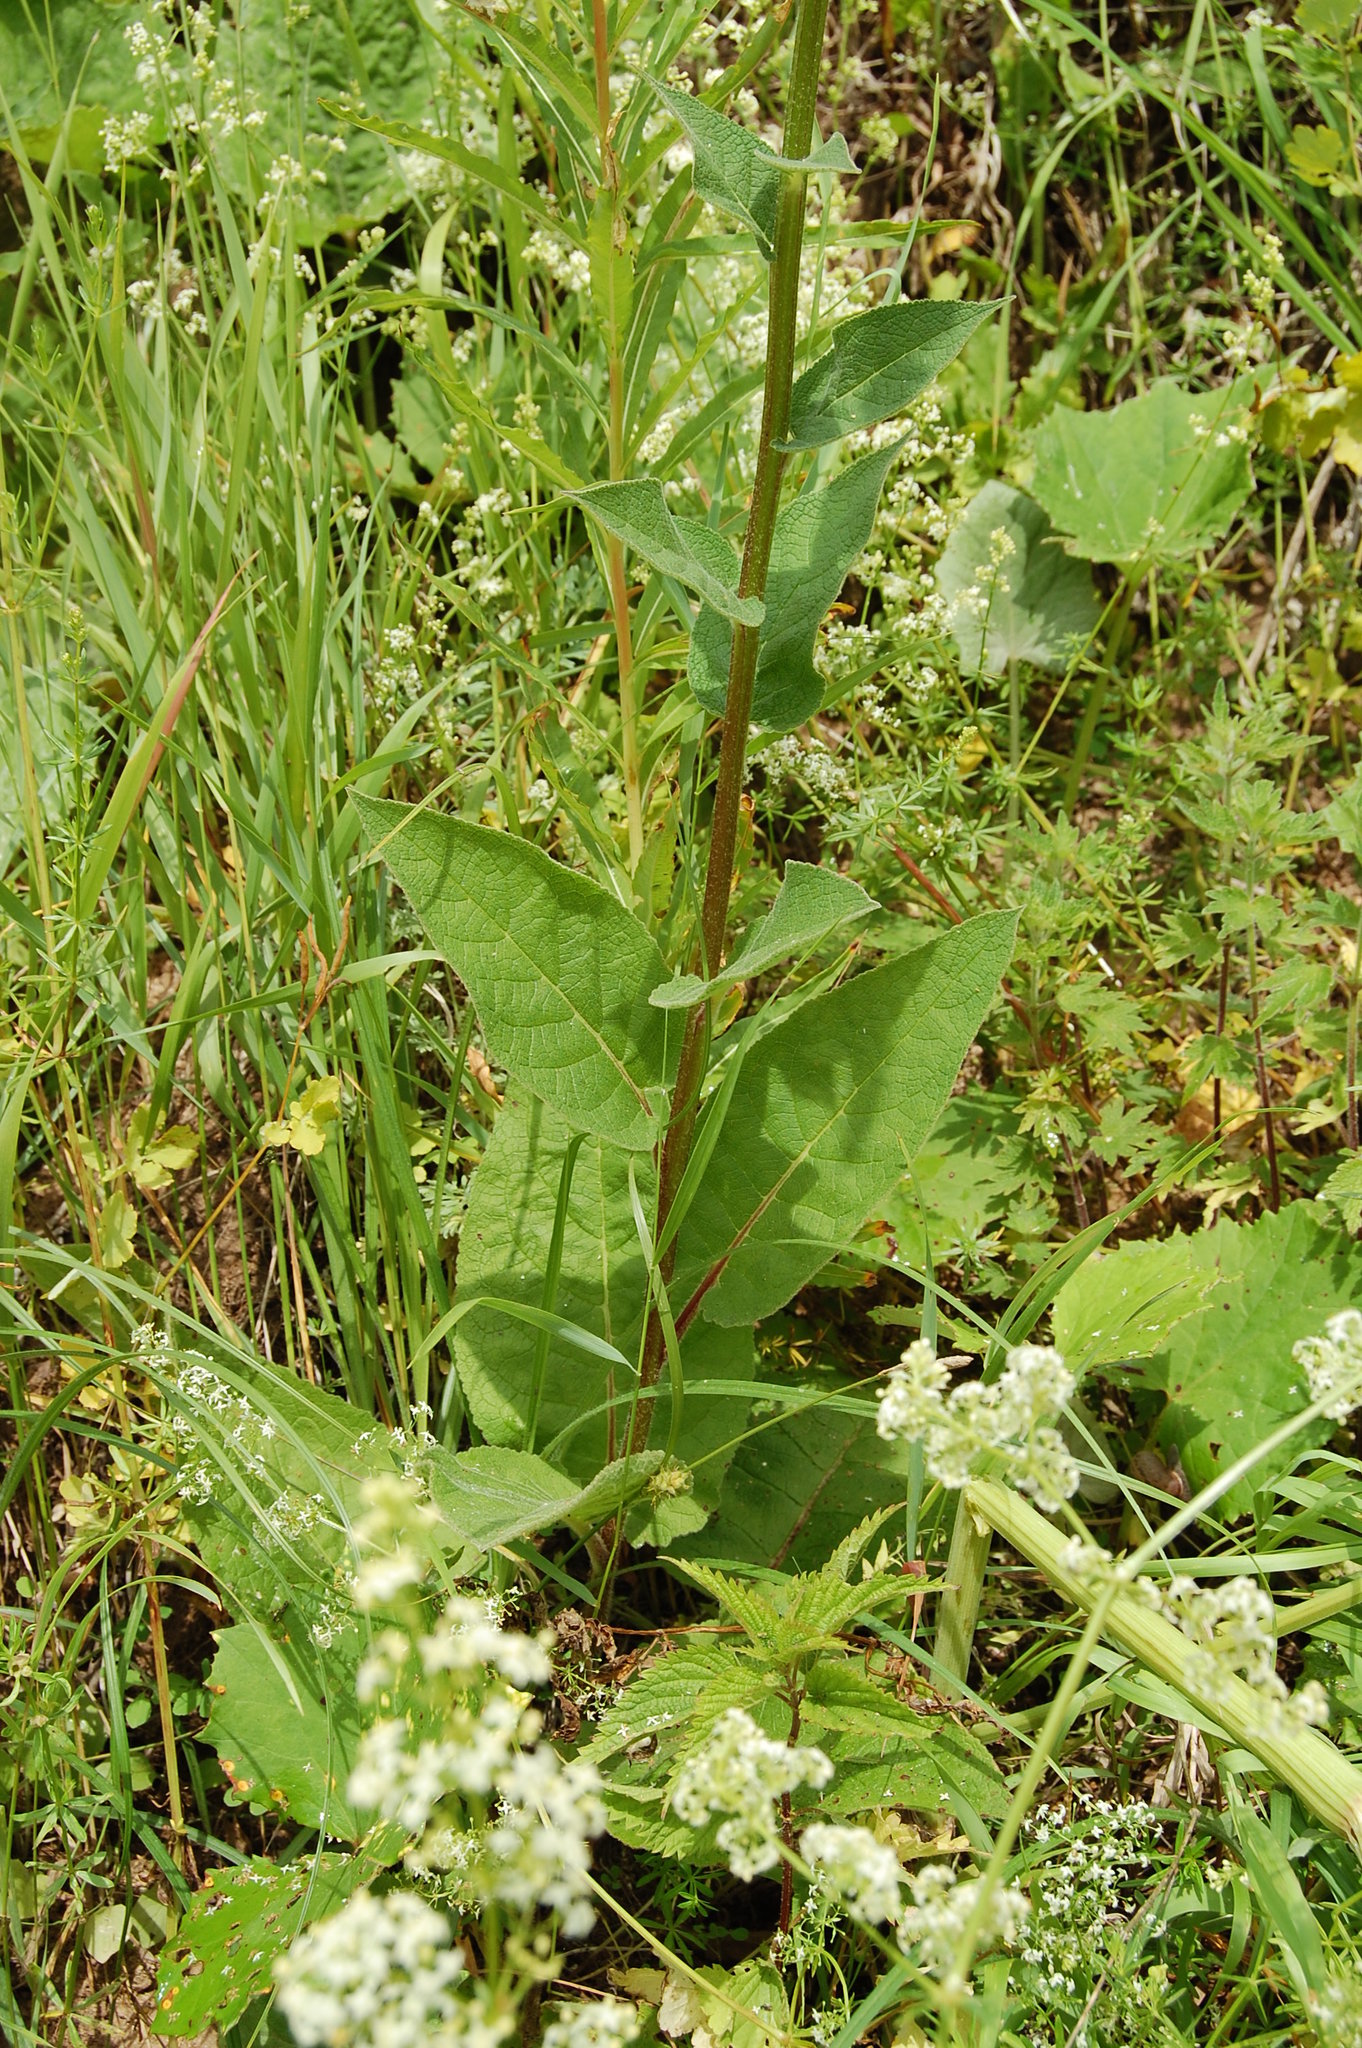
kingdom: Plantae
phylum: Tracheophyta
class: Magnoliopsida
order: Lamiales
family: Scrophulariaceae
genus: Verbascum
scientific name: Verbascum nigrum
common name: Dark mullein
